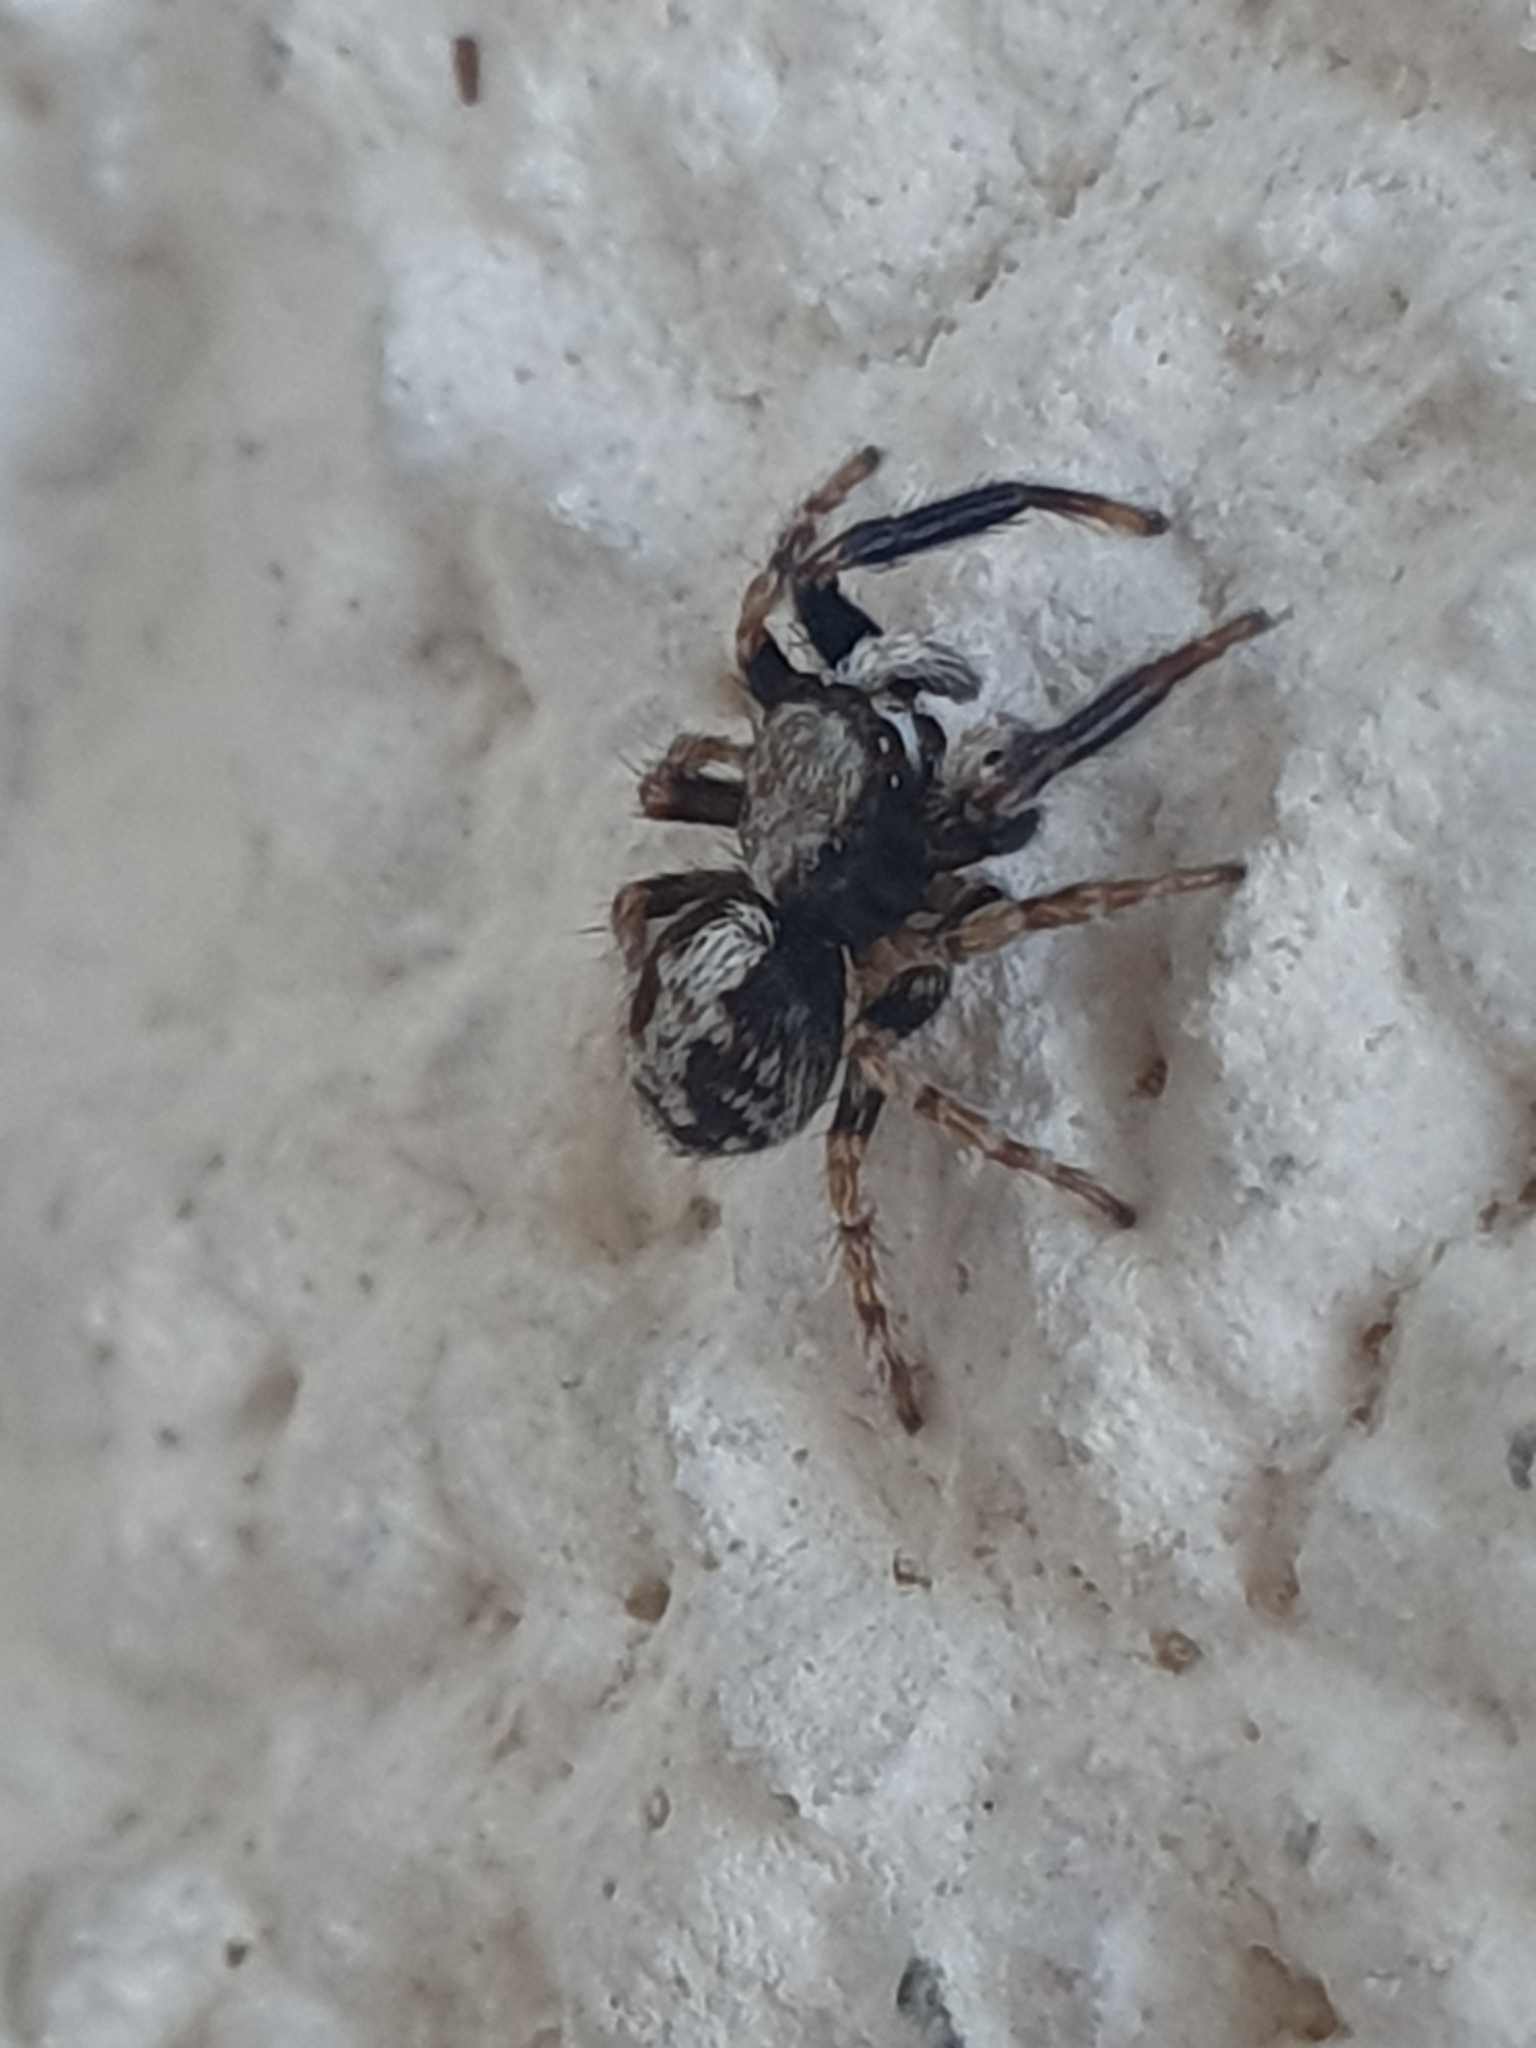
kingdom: Animalia
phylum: Arthropoda
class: Arachnida
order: Araneae
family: Salticidae
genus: Pseudeuophrys
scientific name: Pseudeuophrys lanigera
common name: Jumping spider
